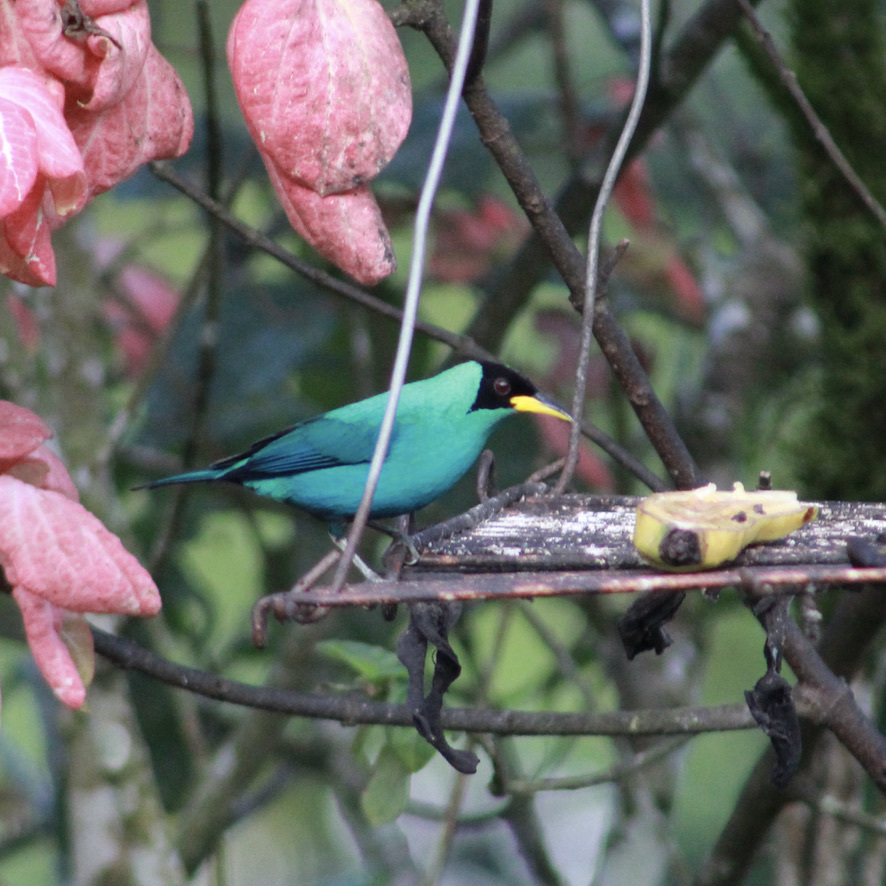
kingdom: Animalia
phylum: Chordata
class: Aves
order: Passeriformes
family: Thraupidae
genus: Chlorophanes
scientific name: Chlorophanes spiza
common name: Green honeycreeper
